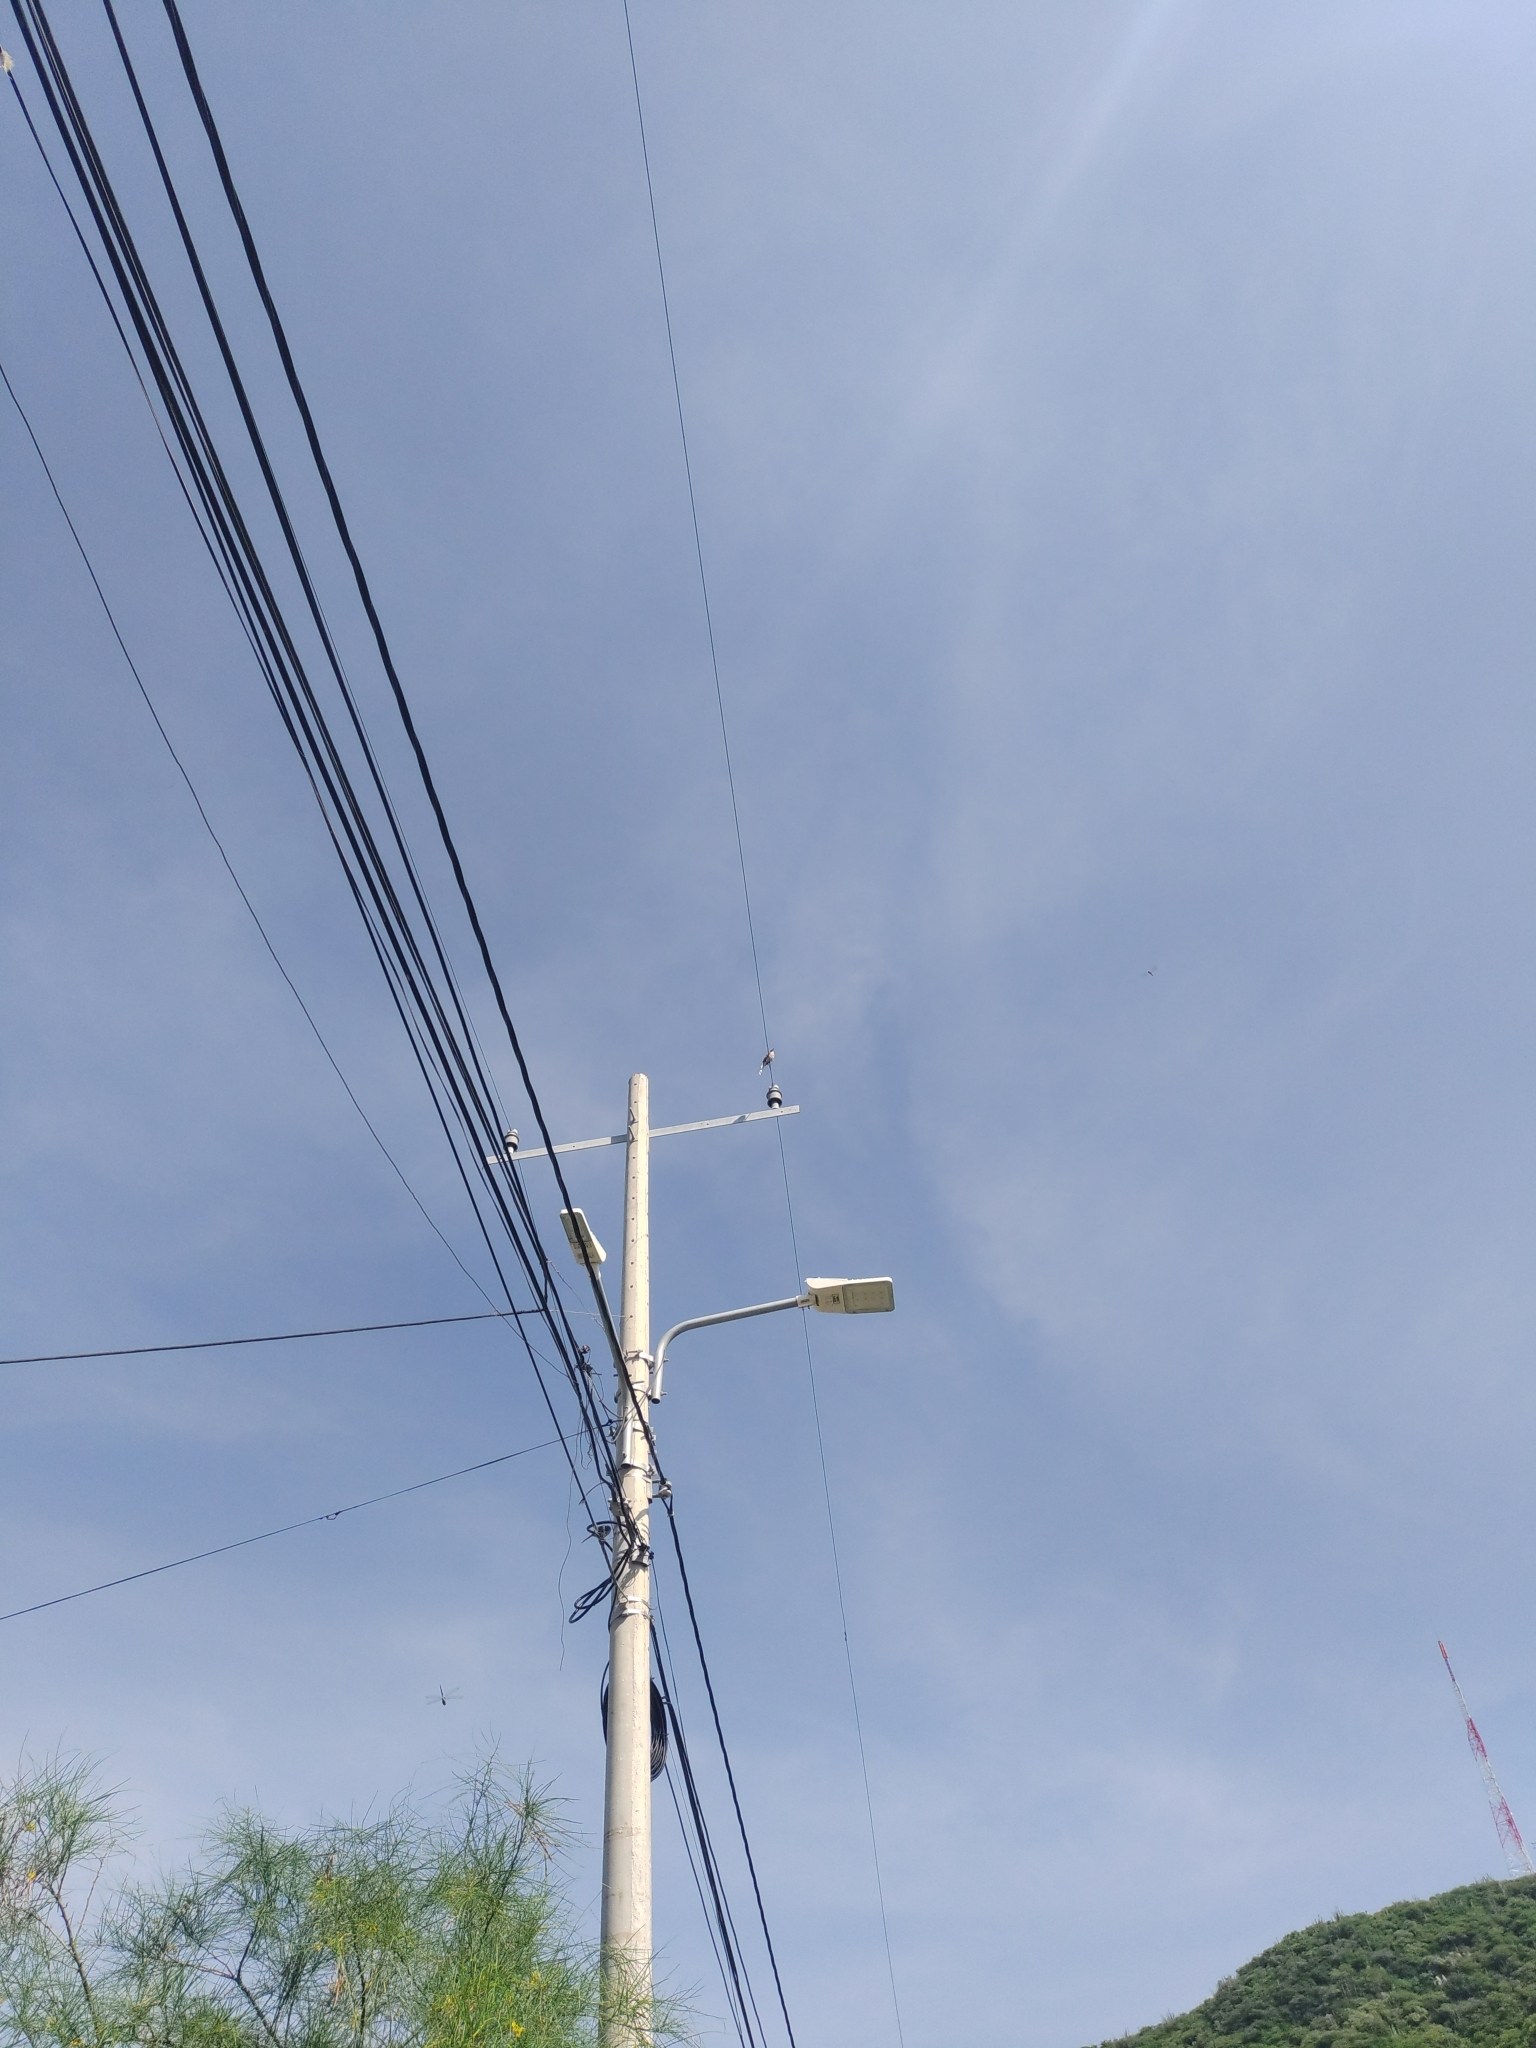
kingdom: Animalia
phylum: Chordata
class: Aves
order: Passeriformes
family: Mimidae
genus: Mimus
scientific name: Mimus gilvus
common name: Tropical mockingbird
